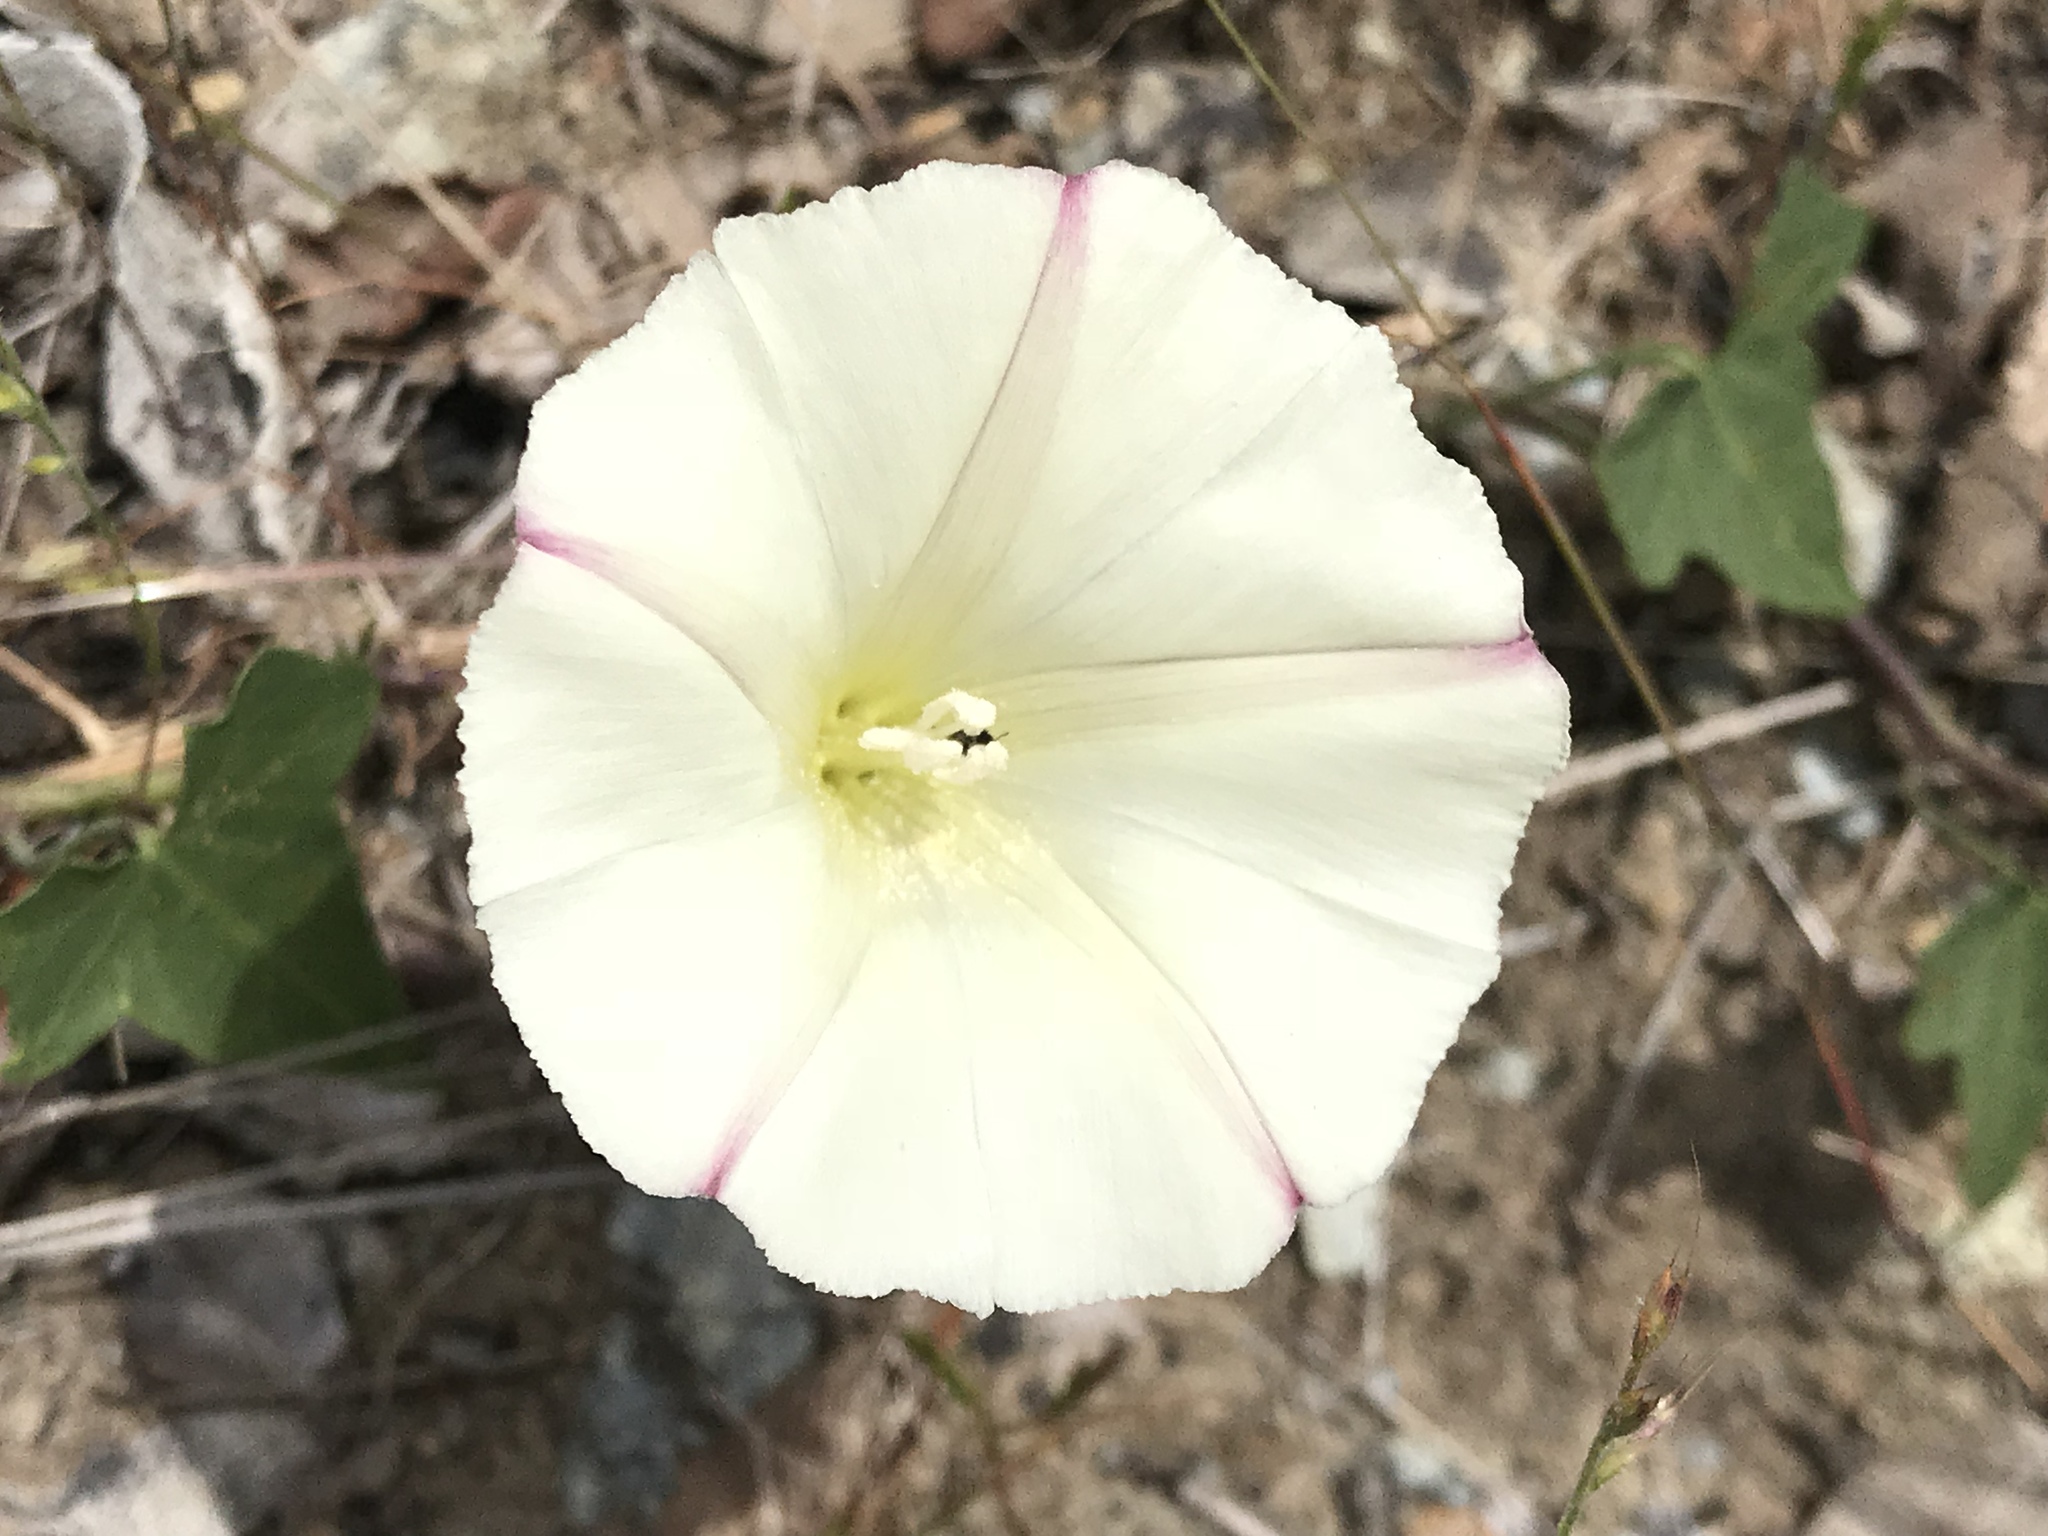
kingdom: Plantae
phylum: Tracheophyta
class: Magnoliopsida
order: Solanales
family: Convolvulaceae
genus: Calystegia
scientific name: Calystegia purpurata
